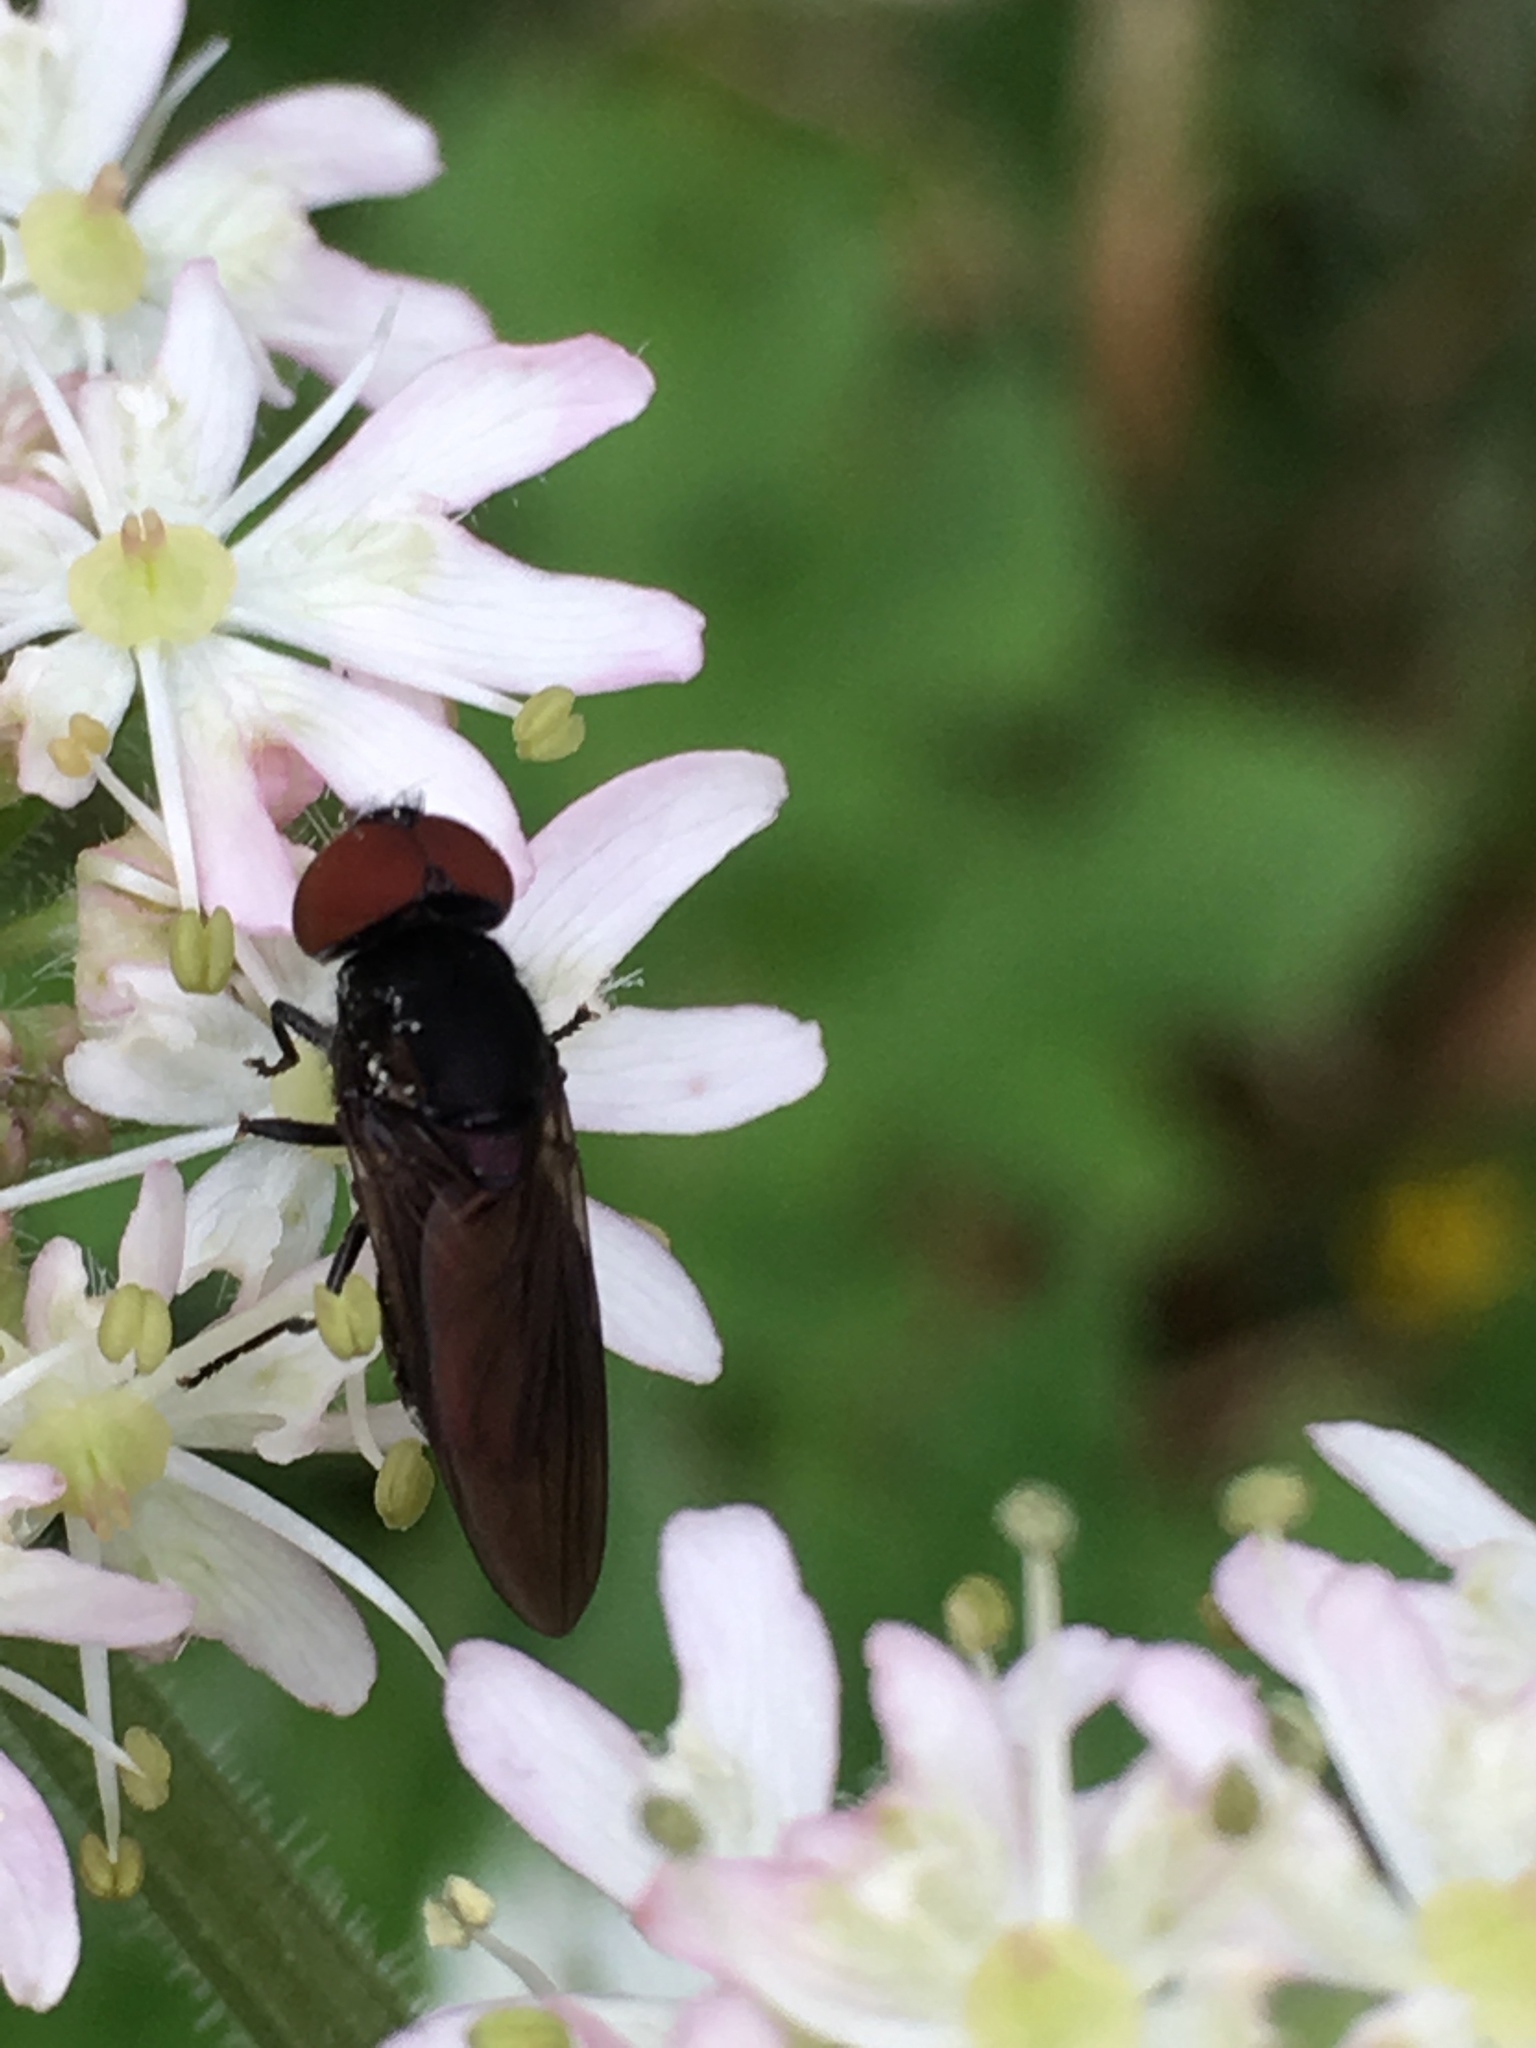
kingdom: Animalia
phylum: Arthropoda
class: Insecta
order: Diptera
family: Syrphidae
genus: Chrysogaster
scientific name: Chrysogaster solstitialis
